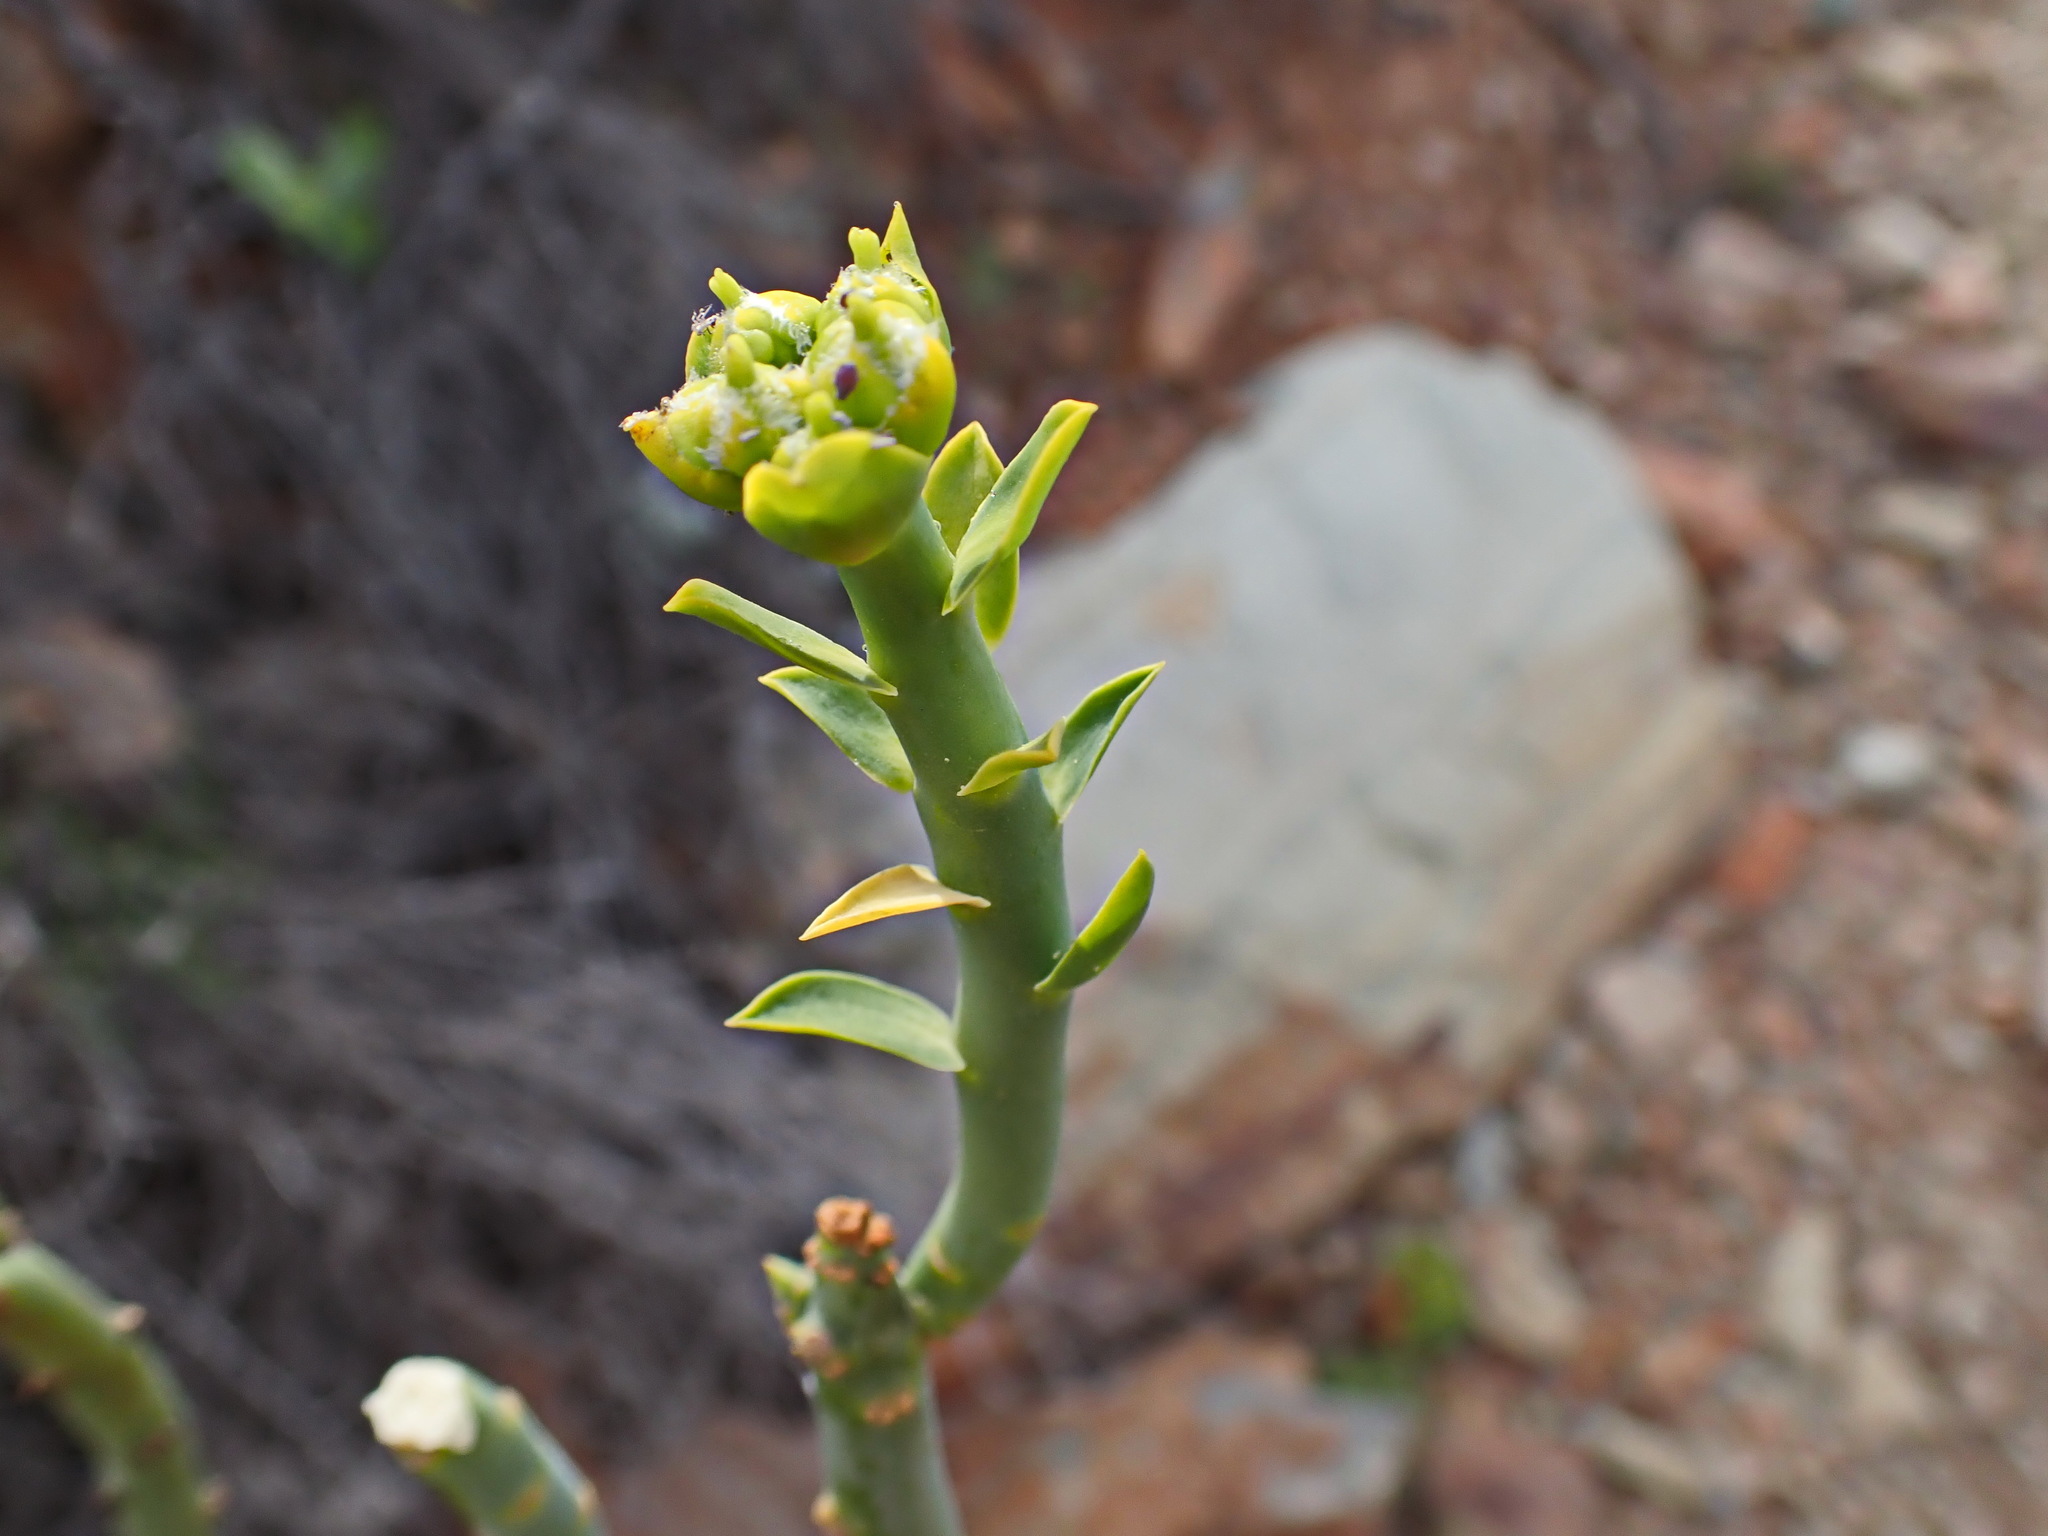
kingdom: Plantae
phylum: Tracheophyta
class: Magnoliopsida
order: Malpighiales
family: Euphorbiaceae
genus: Euphorbia
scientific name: Euphorbia mauritanica
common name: Jackal's-food
